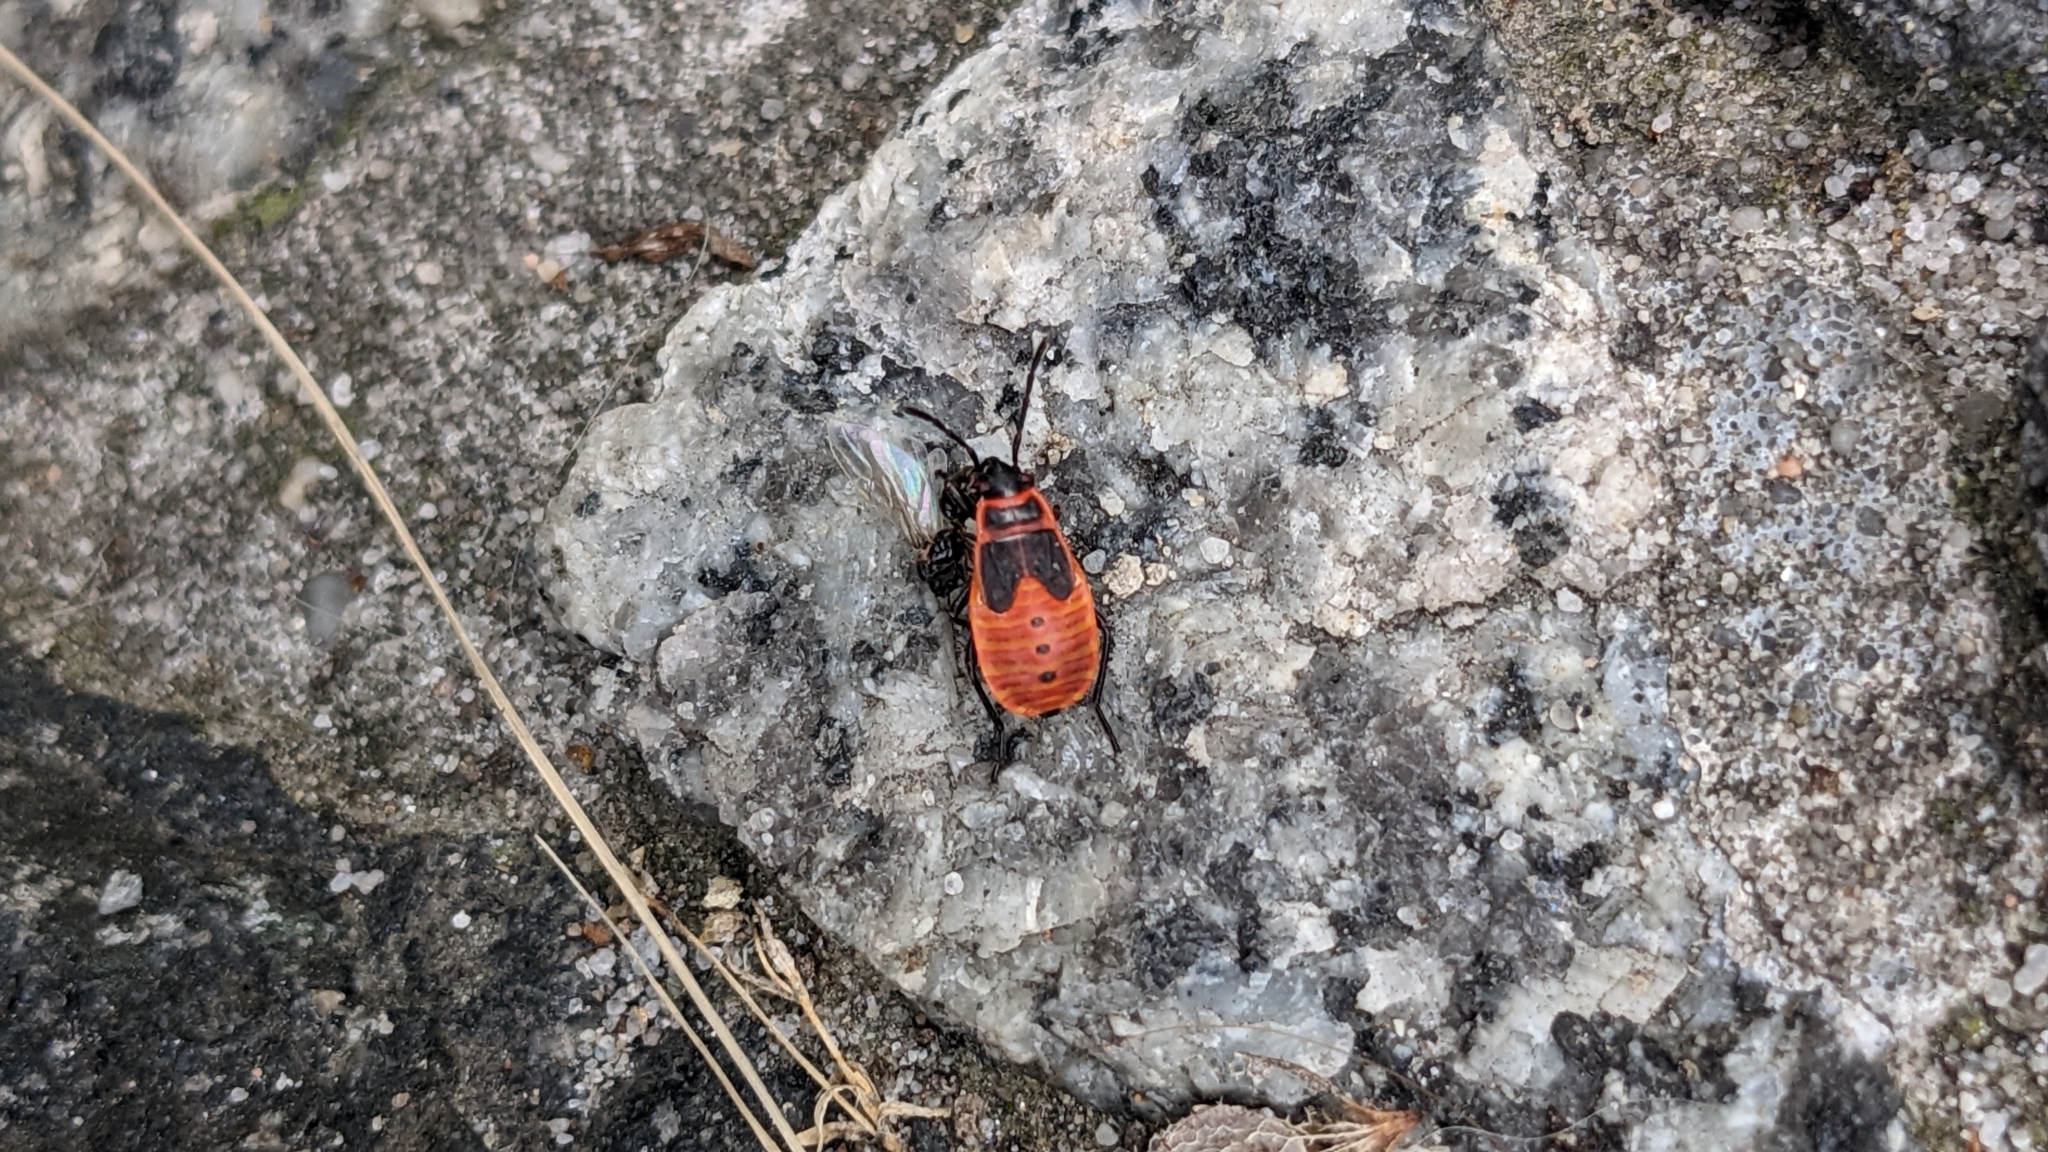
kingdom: Animalia
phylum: Arthropoda
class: Insecta
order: Hemiptera
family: Pyrrhocoridae
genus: Pyrrhocoris
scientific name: Pyrrhocoris apterus
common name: Firebug
